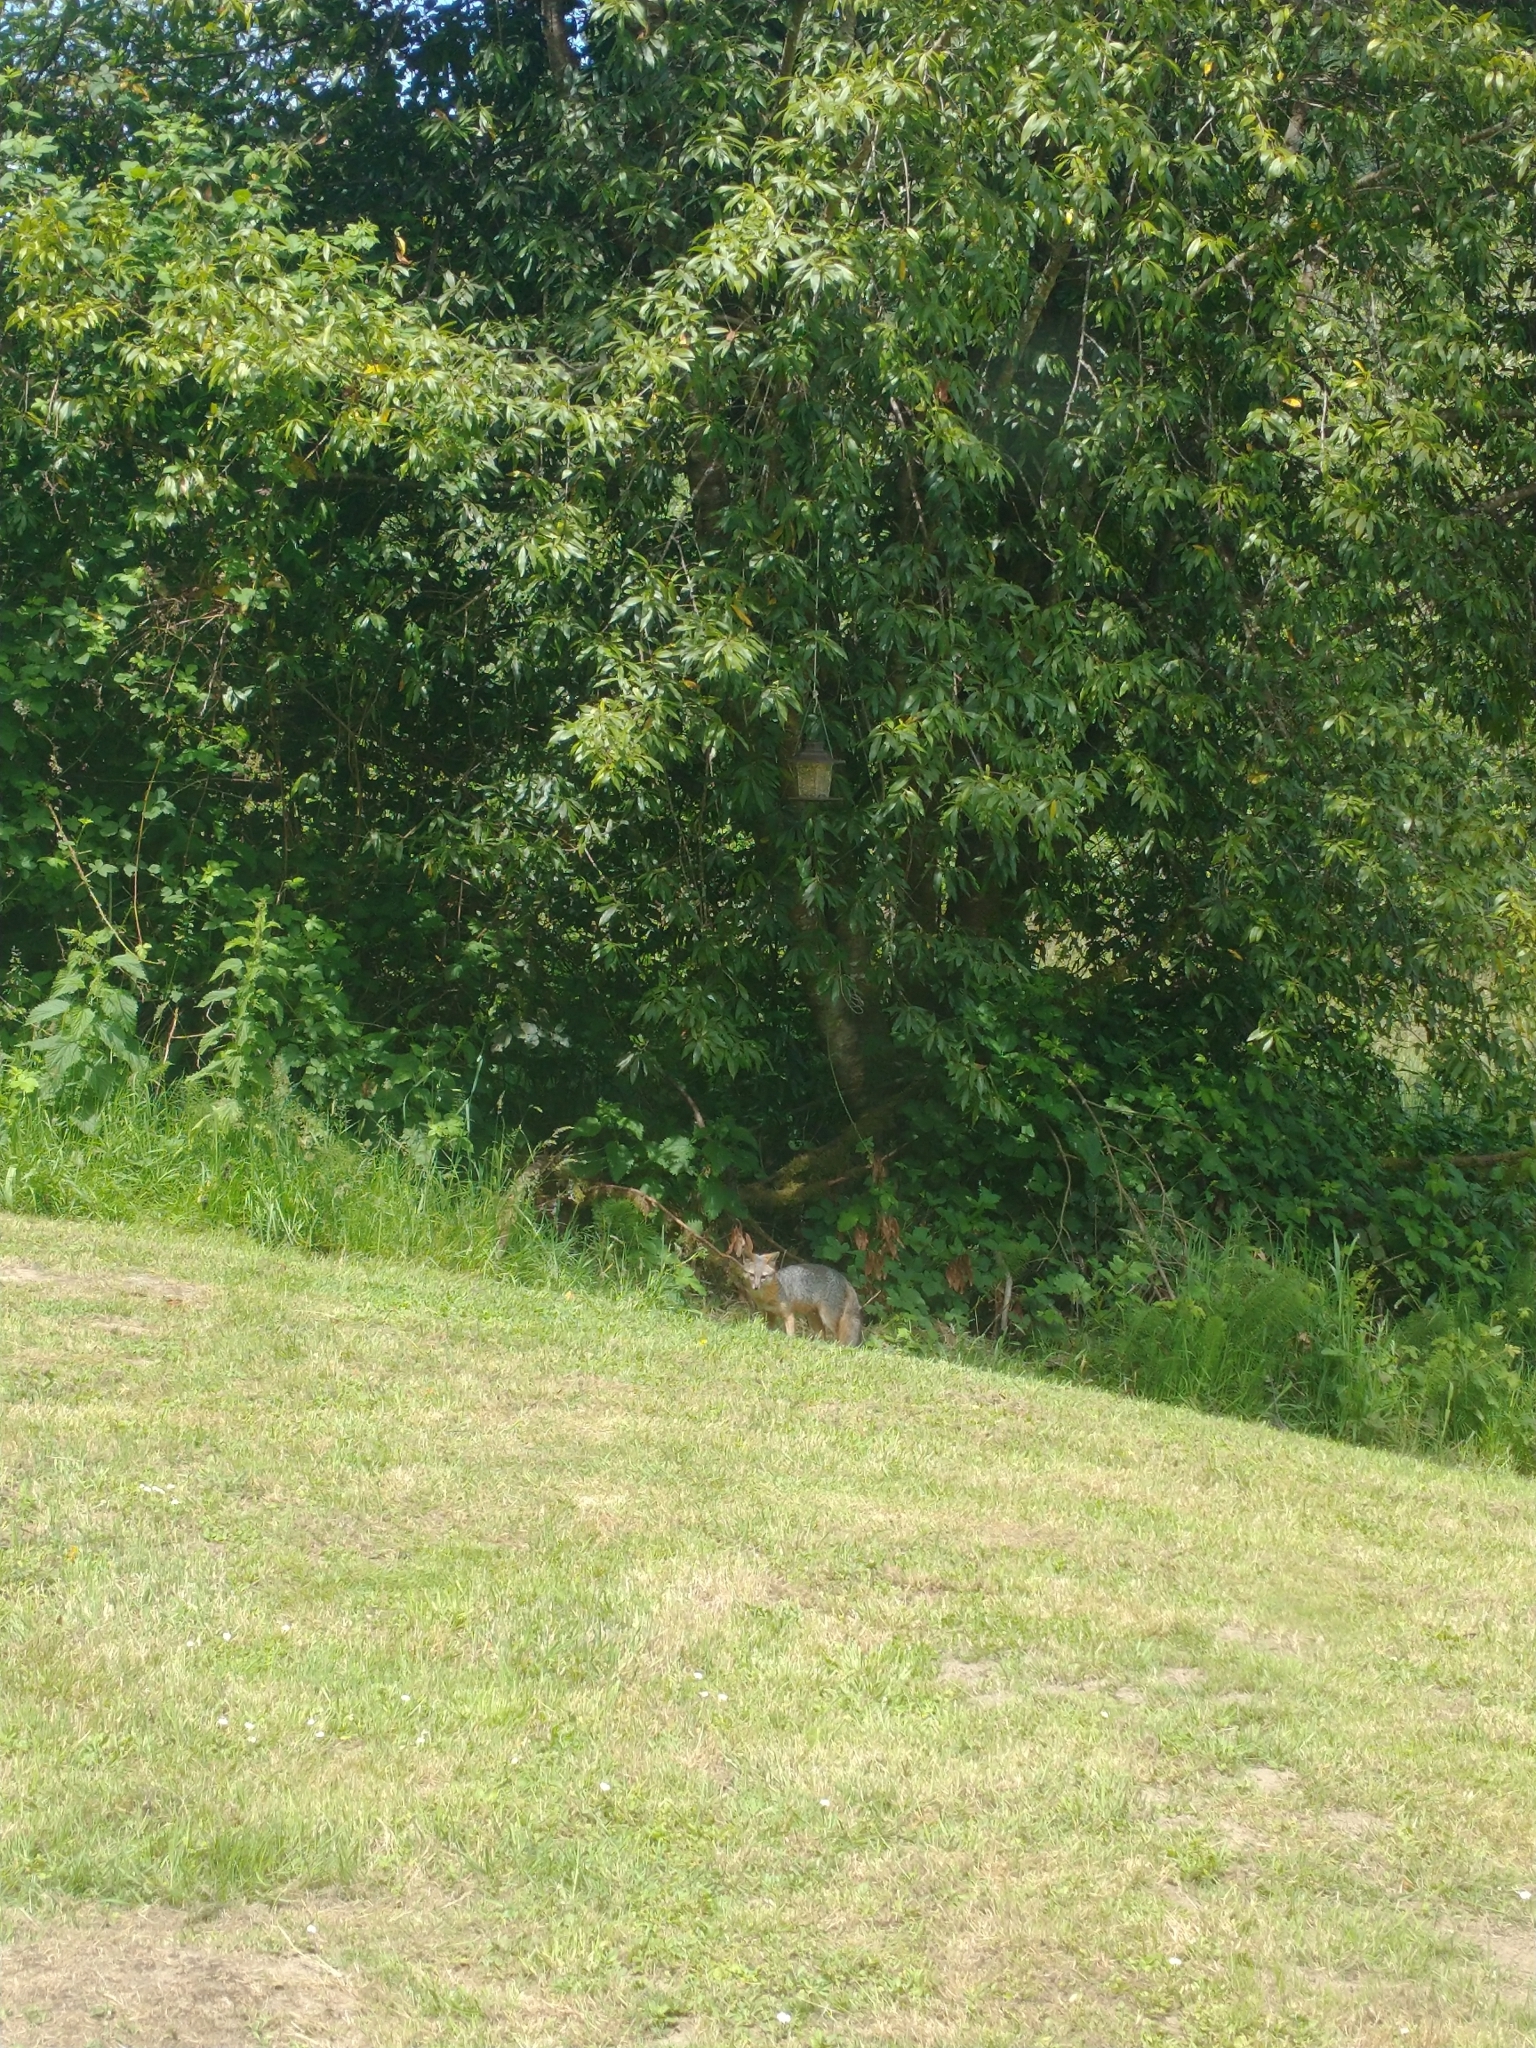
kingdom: Animalia
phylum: Chordata
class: Mammalia
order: Carnivora
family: Canidae
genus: Urocyon
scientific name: Urocyon cinereoargenteus
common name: Gray fox
